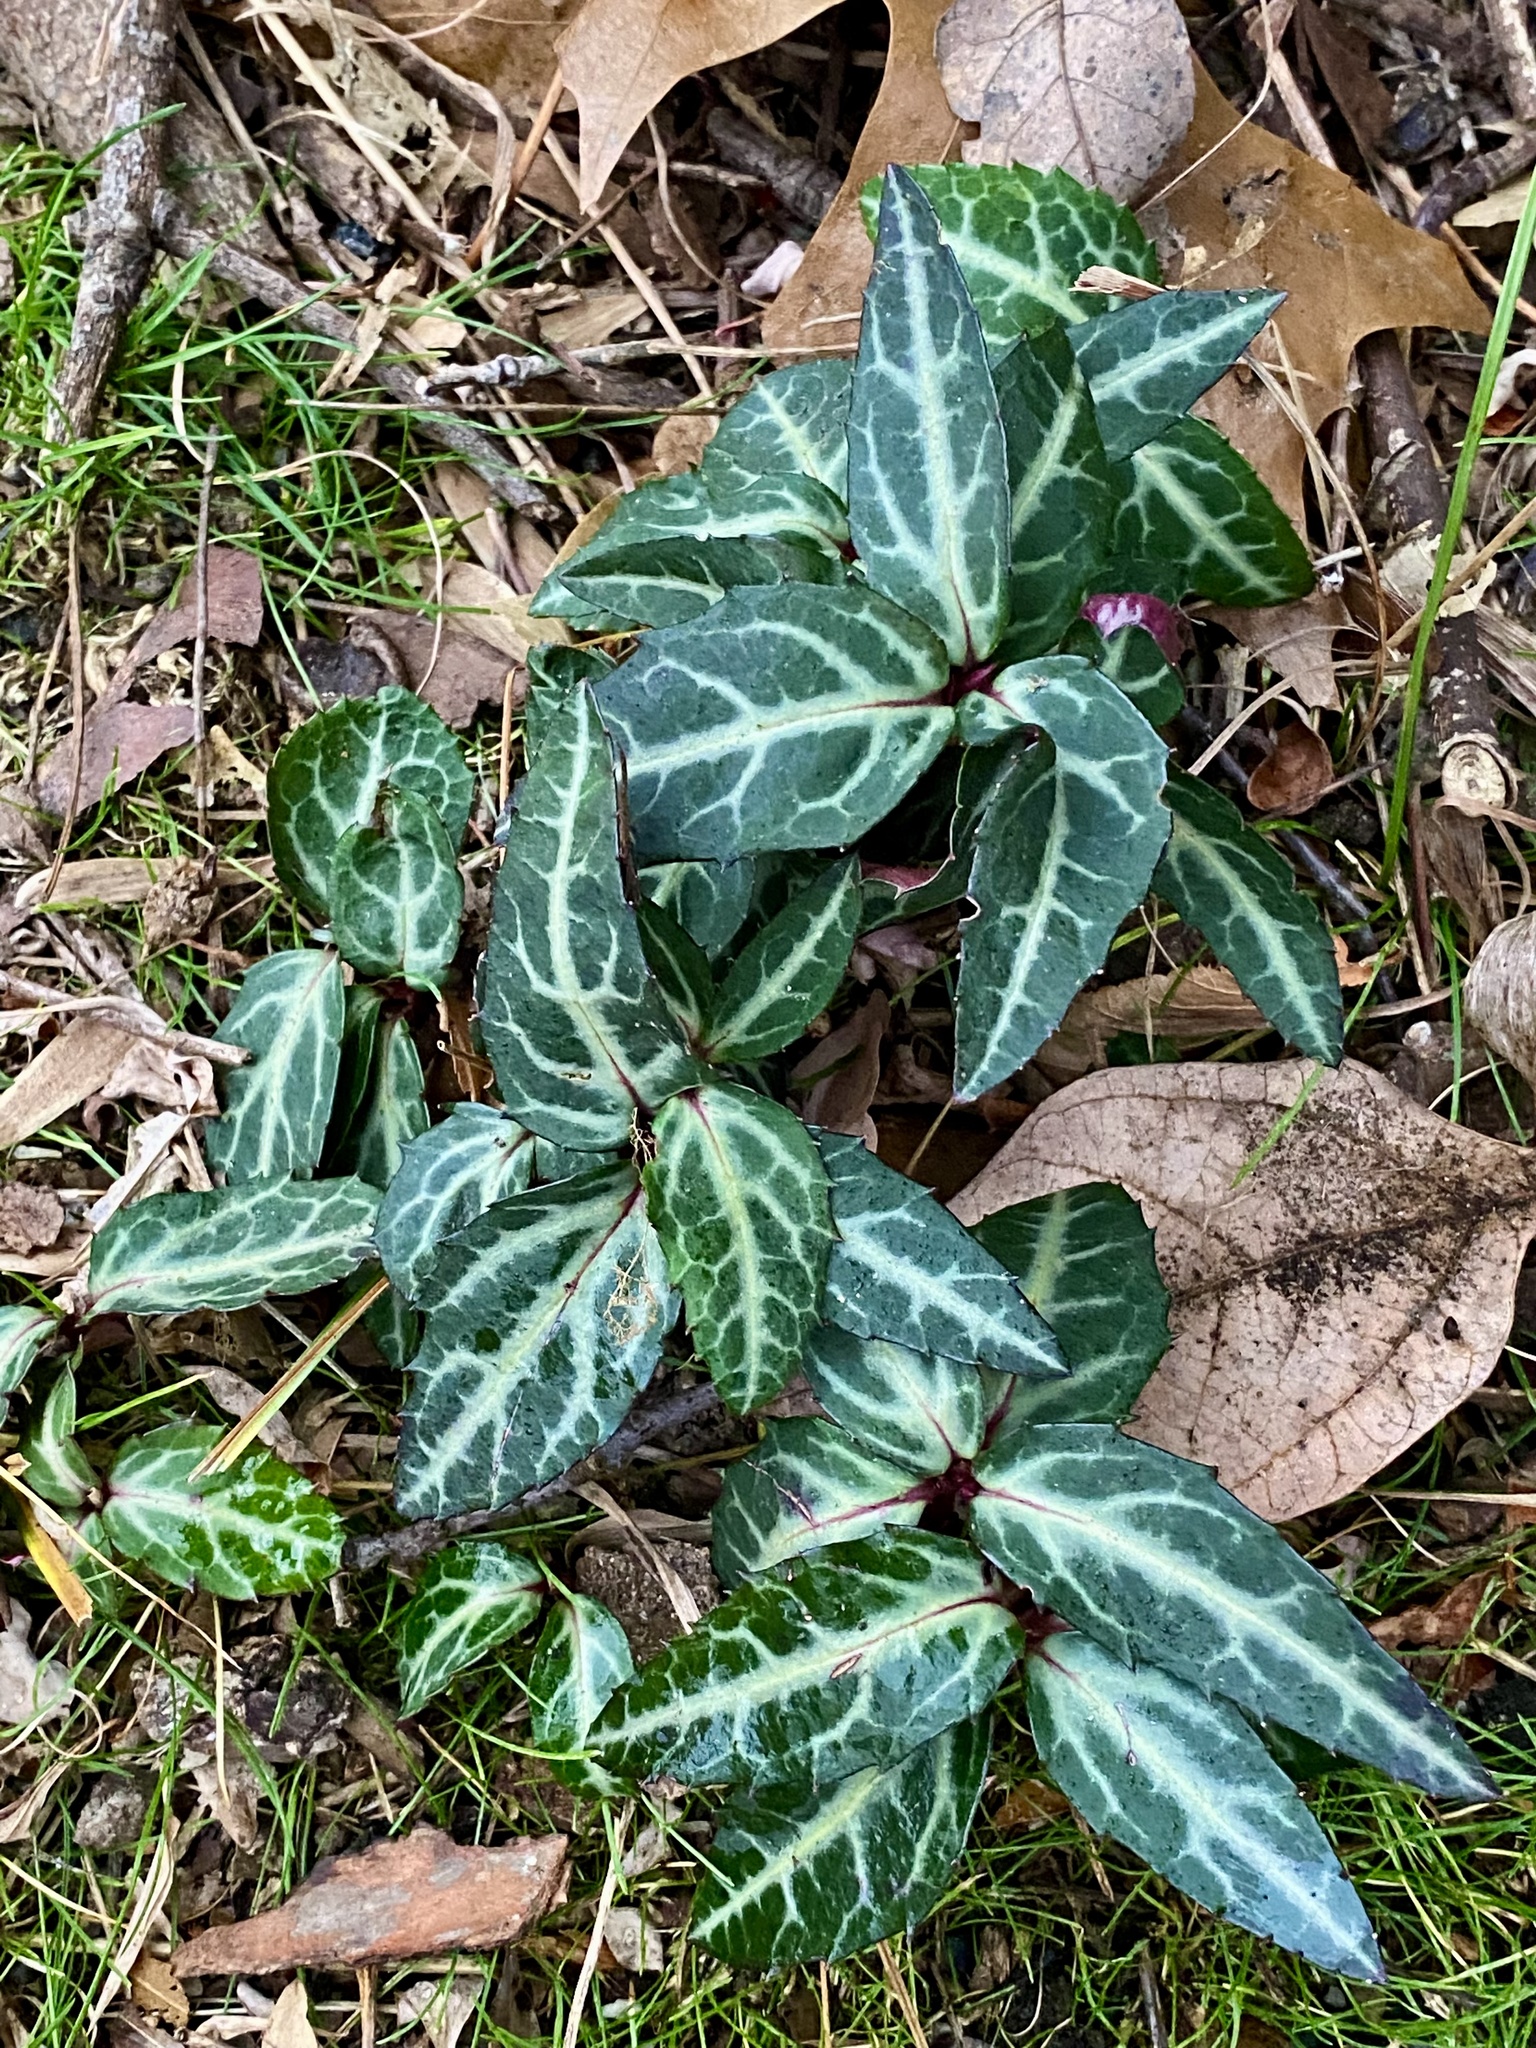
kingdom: Plantae
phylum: Tracheophyta
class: Magnoliopsida
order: Ericales
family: Ericaceae
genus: Chimaphila
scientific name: Chimaphila maculata
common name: Spotted pipsissewa
